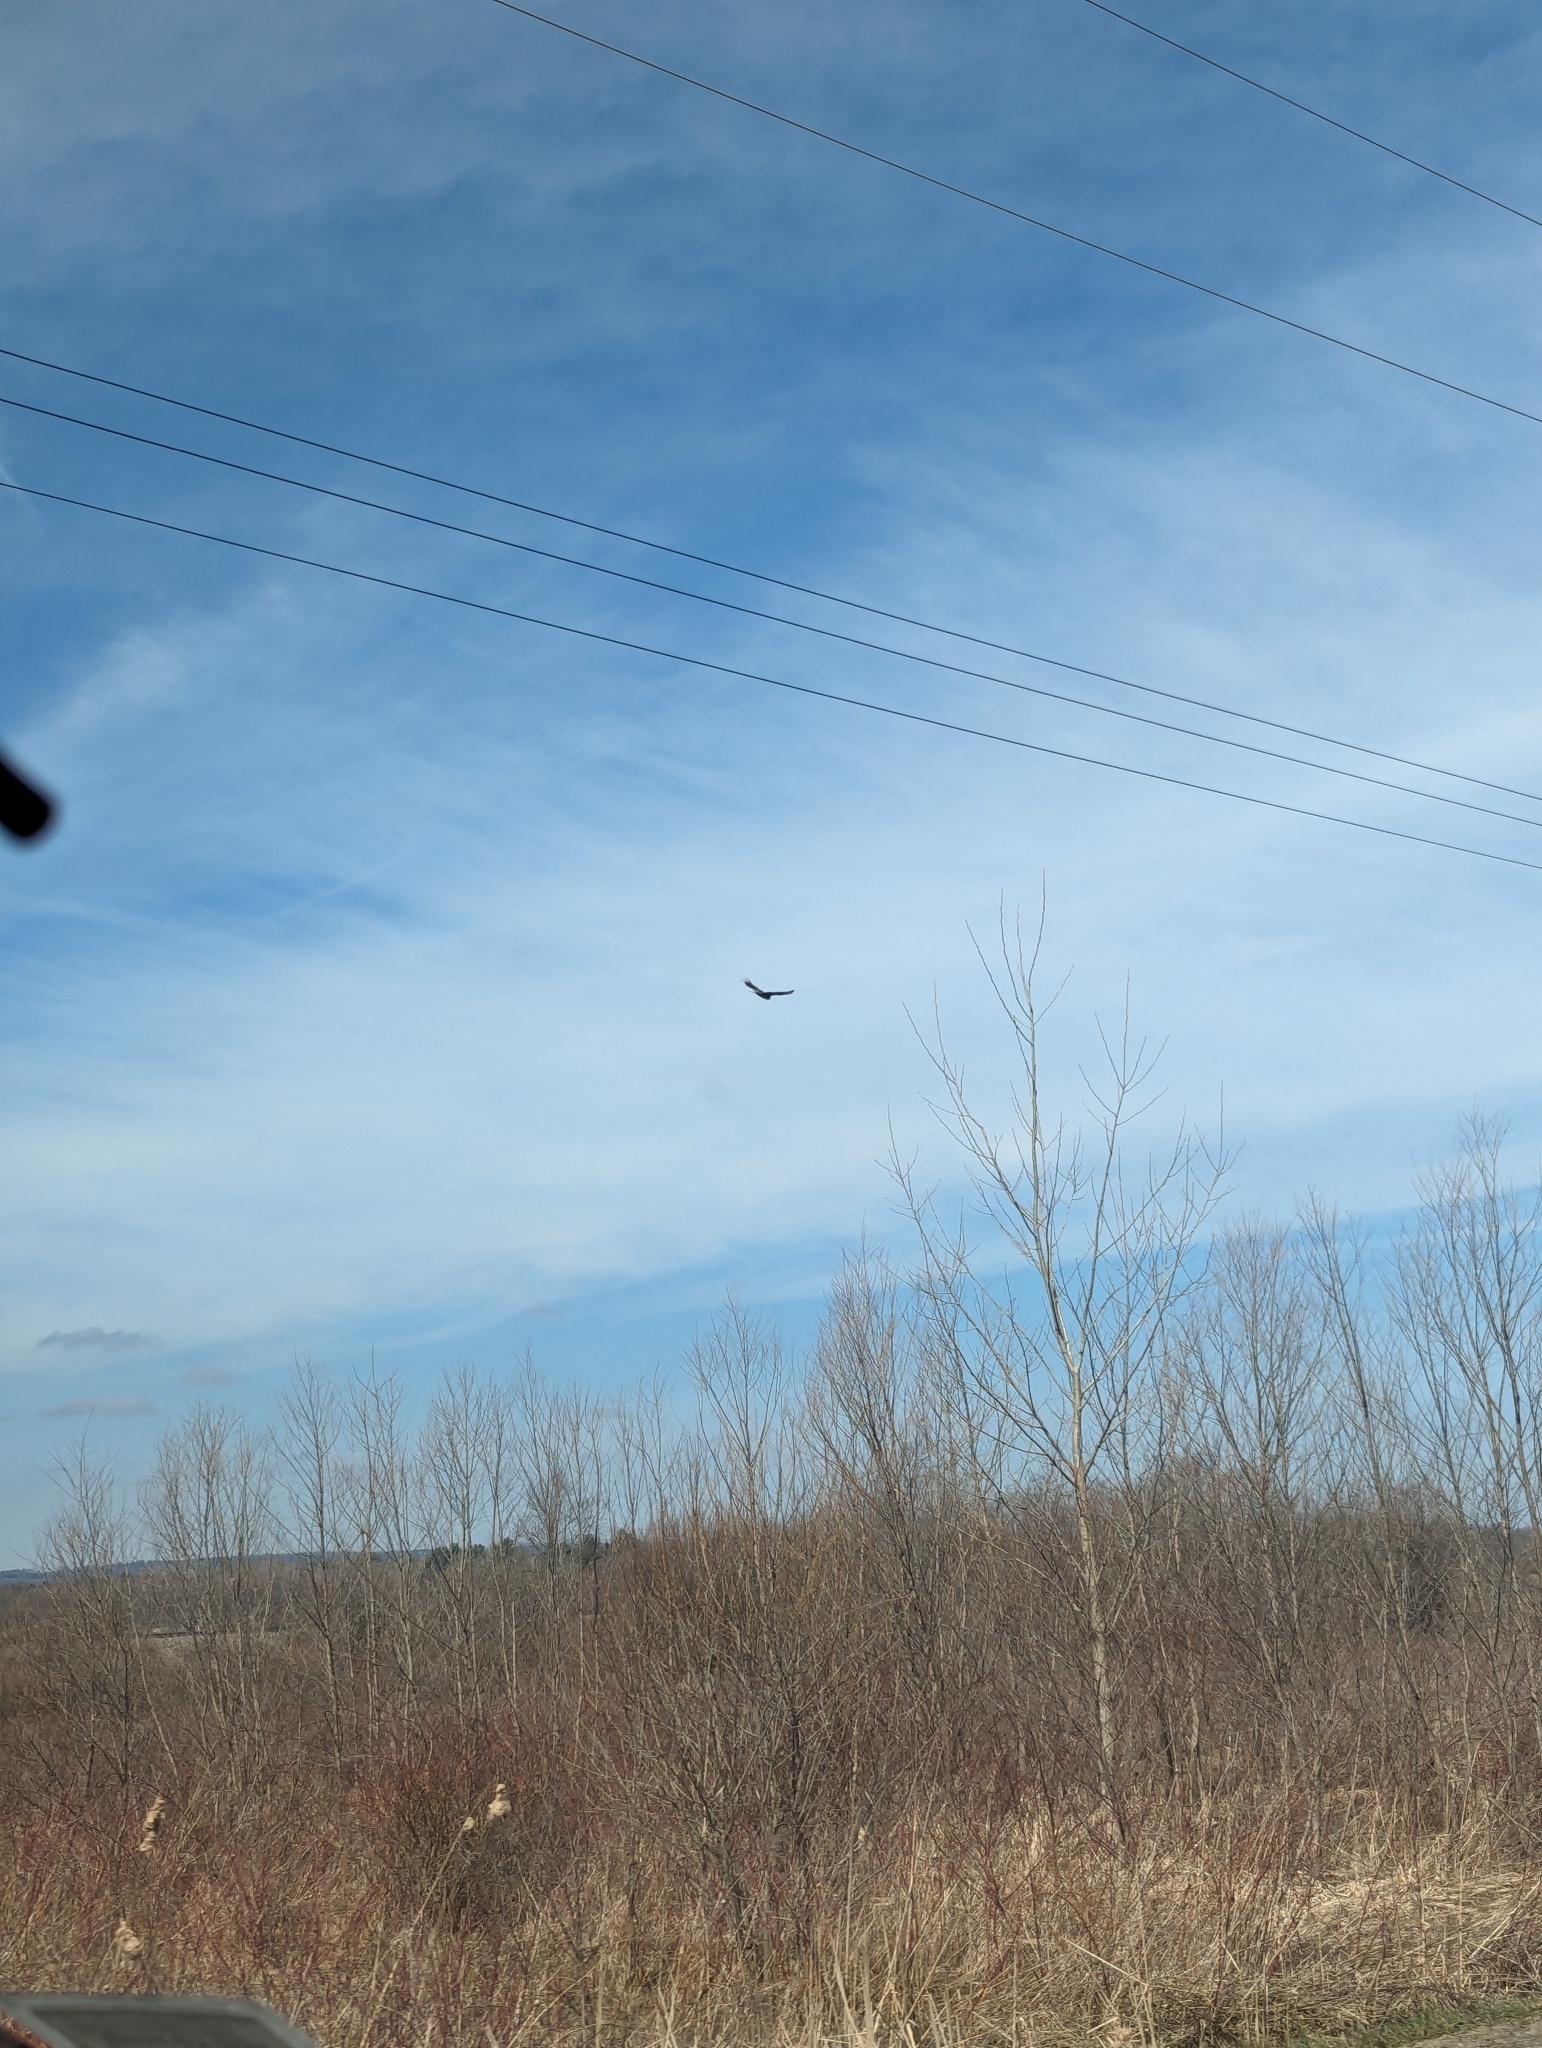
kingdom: Animalia
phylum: Chordata
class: Aves
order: Accipitriformes
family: Cathartidae
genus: Cathartes
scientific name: Cathartes aura
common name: Turkey vulture
